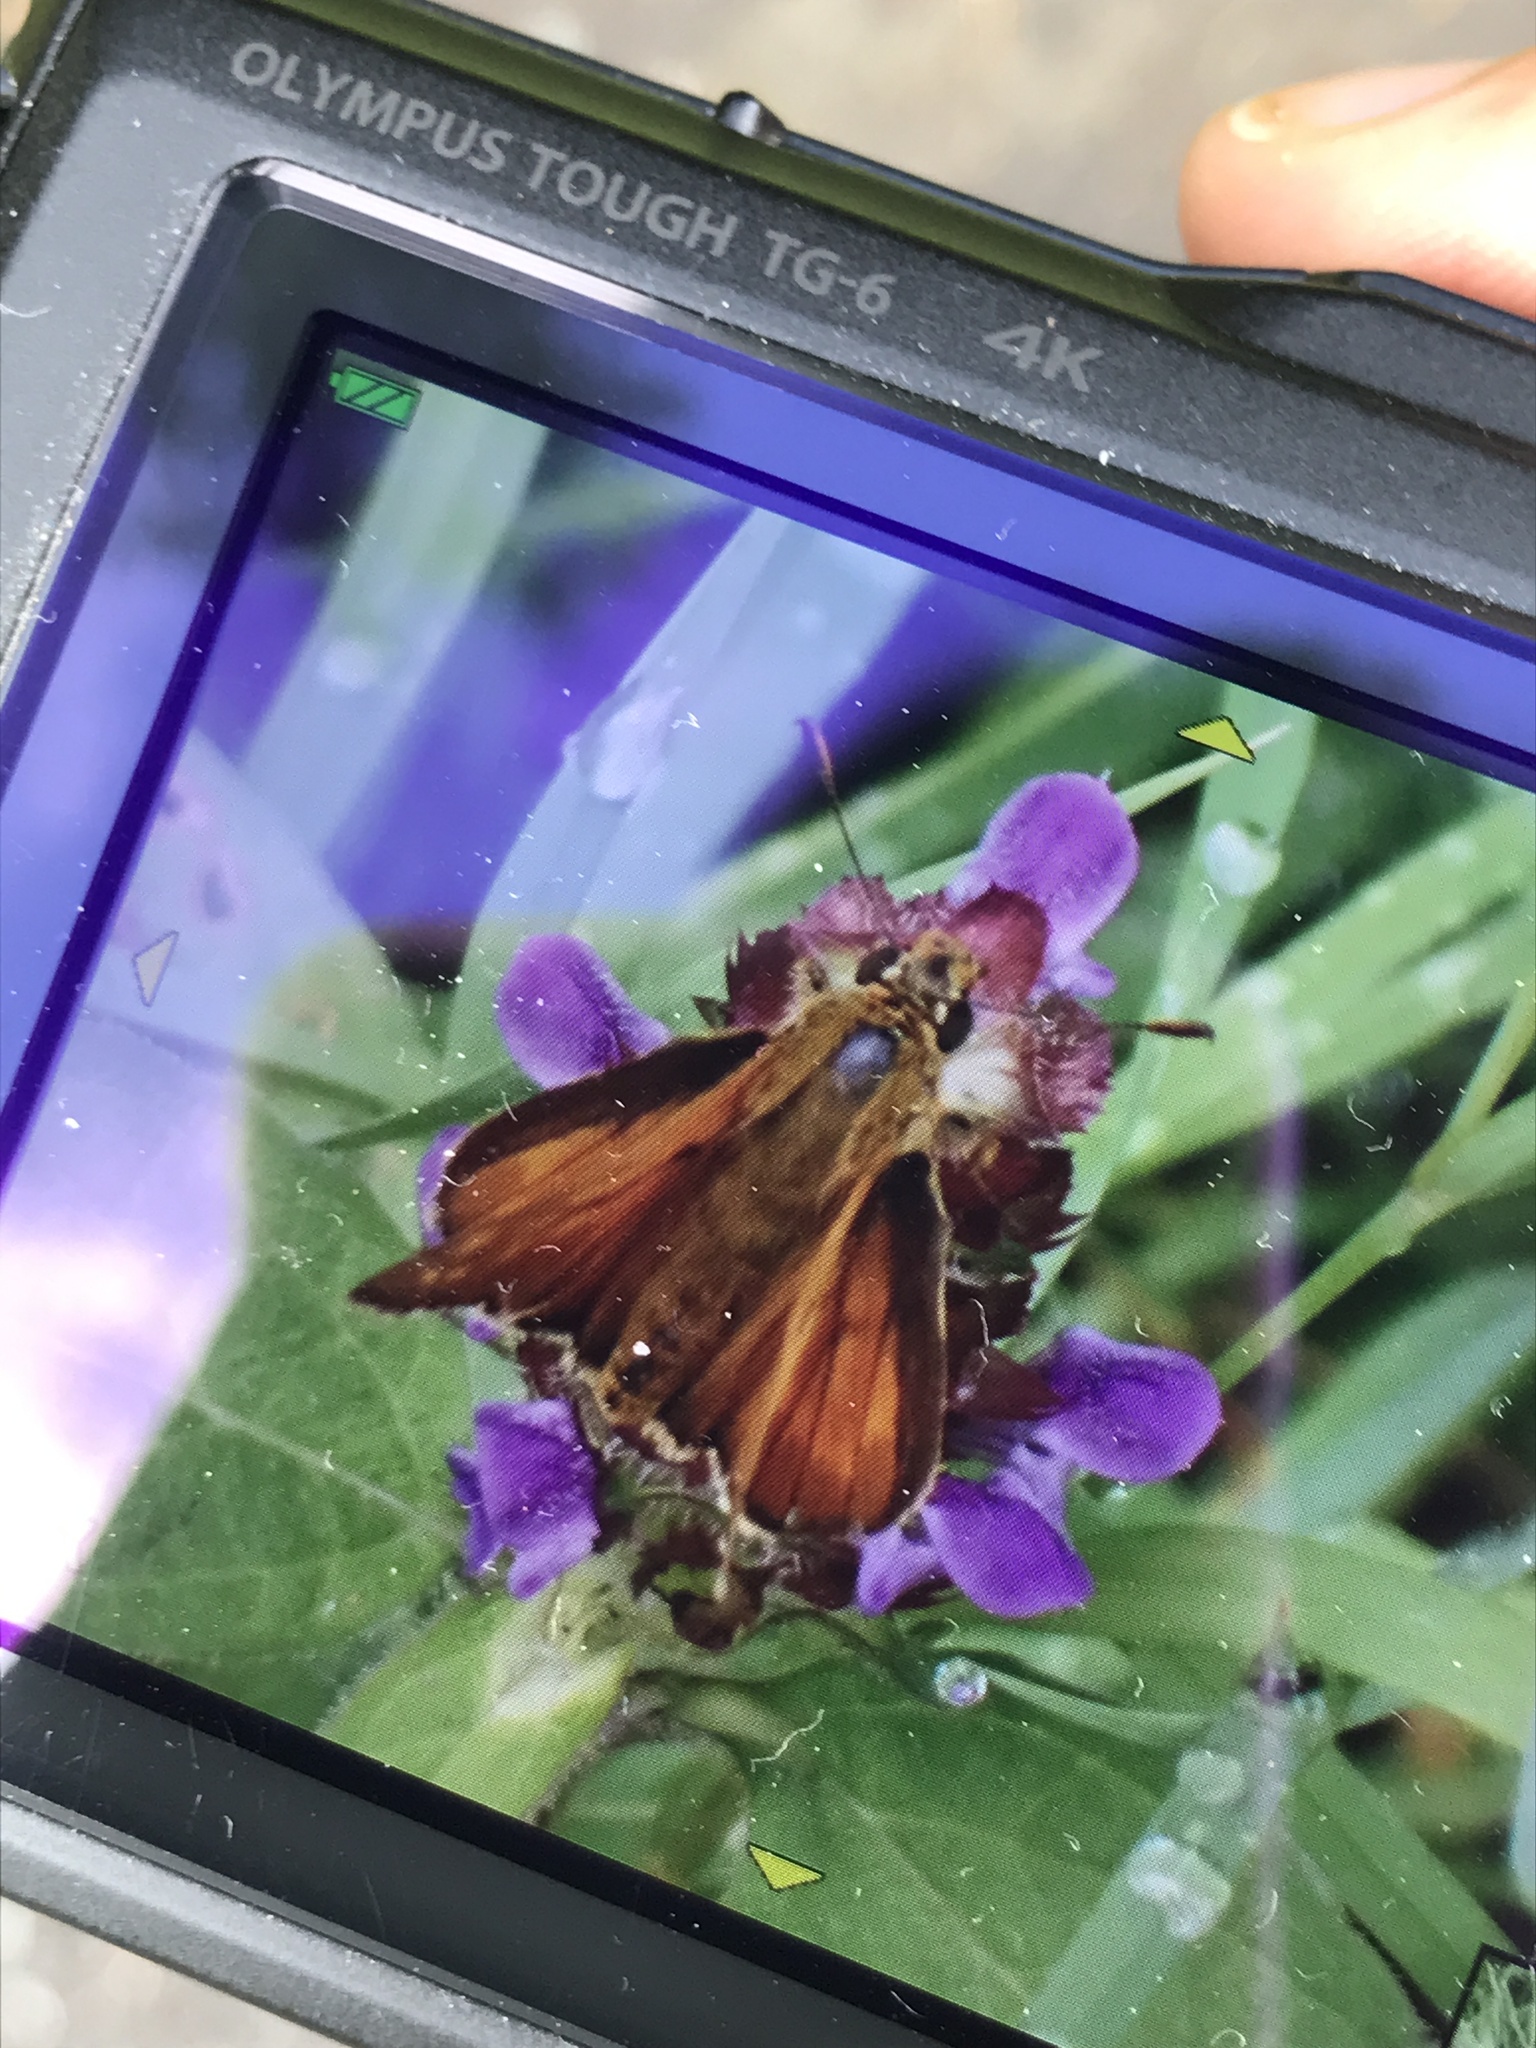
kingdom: Animalia
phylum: Arthropoda
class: Insecta
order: Lepidoptera
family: Hesperiidae
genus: Ochlodes
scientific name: Ochlodes venata
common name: Large skipper
